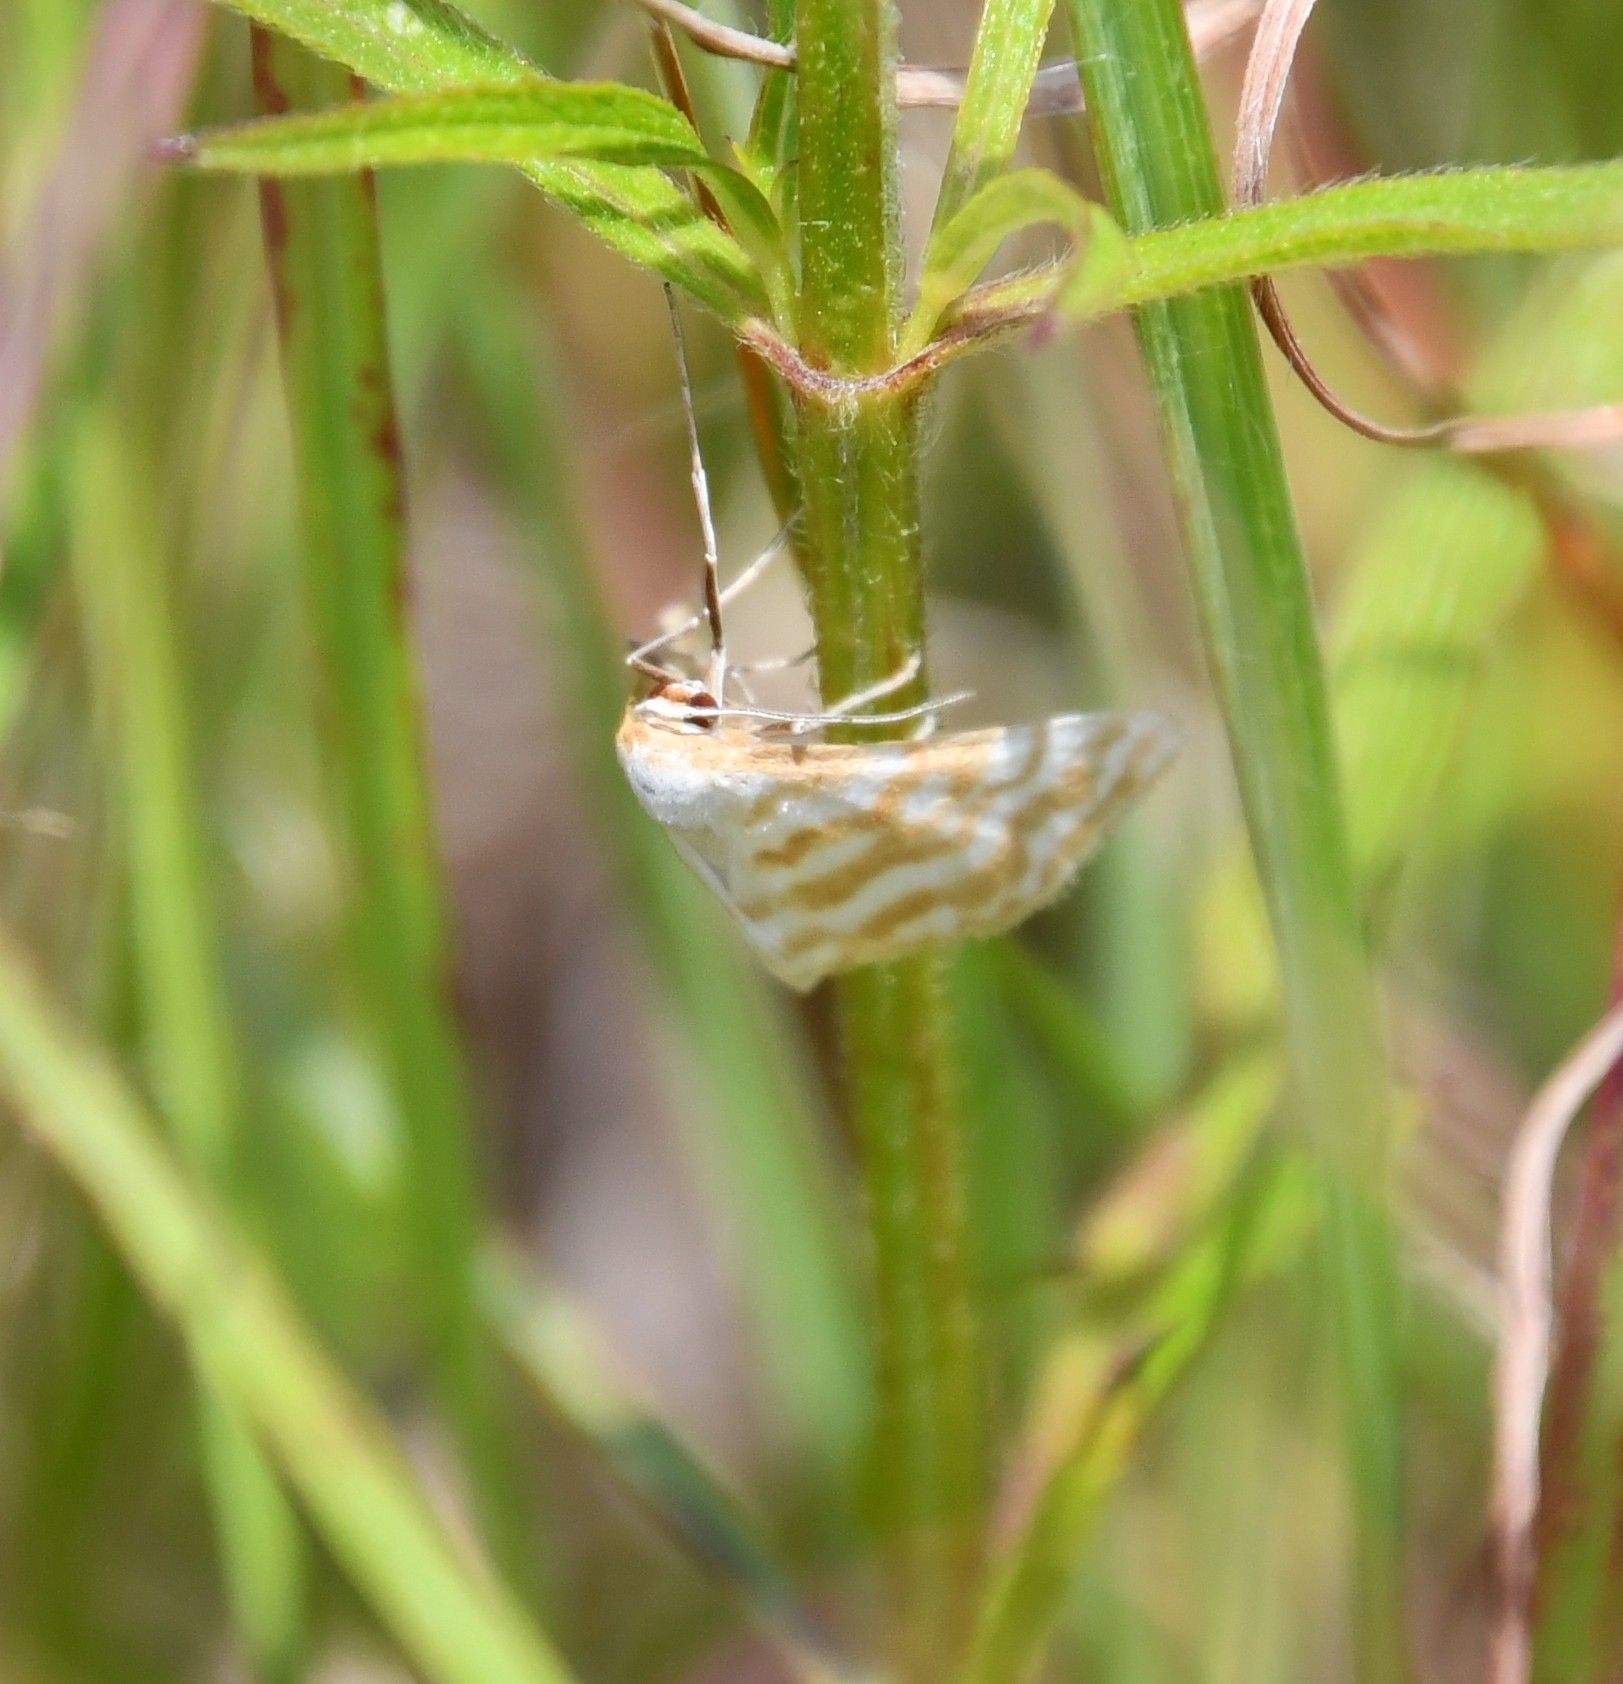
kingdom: Animalia
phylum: Arthropoda
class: Insecta
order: Lepidoptera
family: Geometridae
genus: Idaea
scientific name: Idaea sericeata
